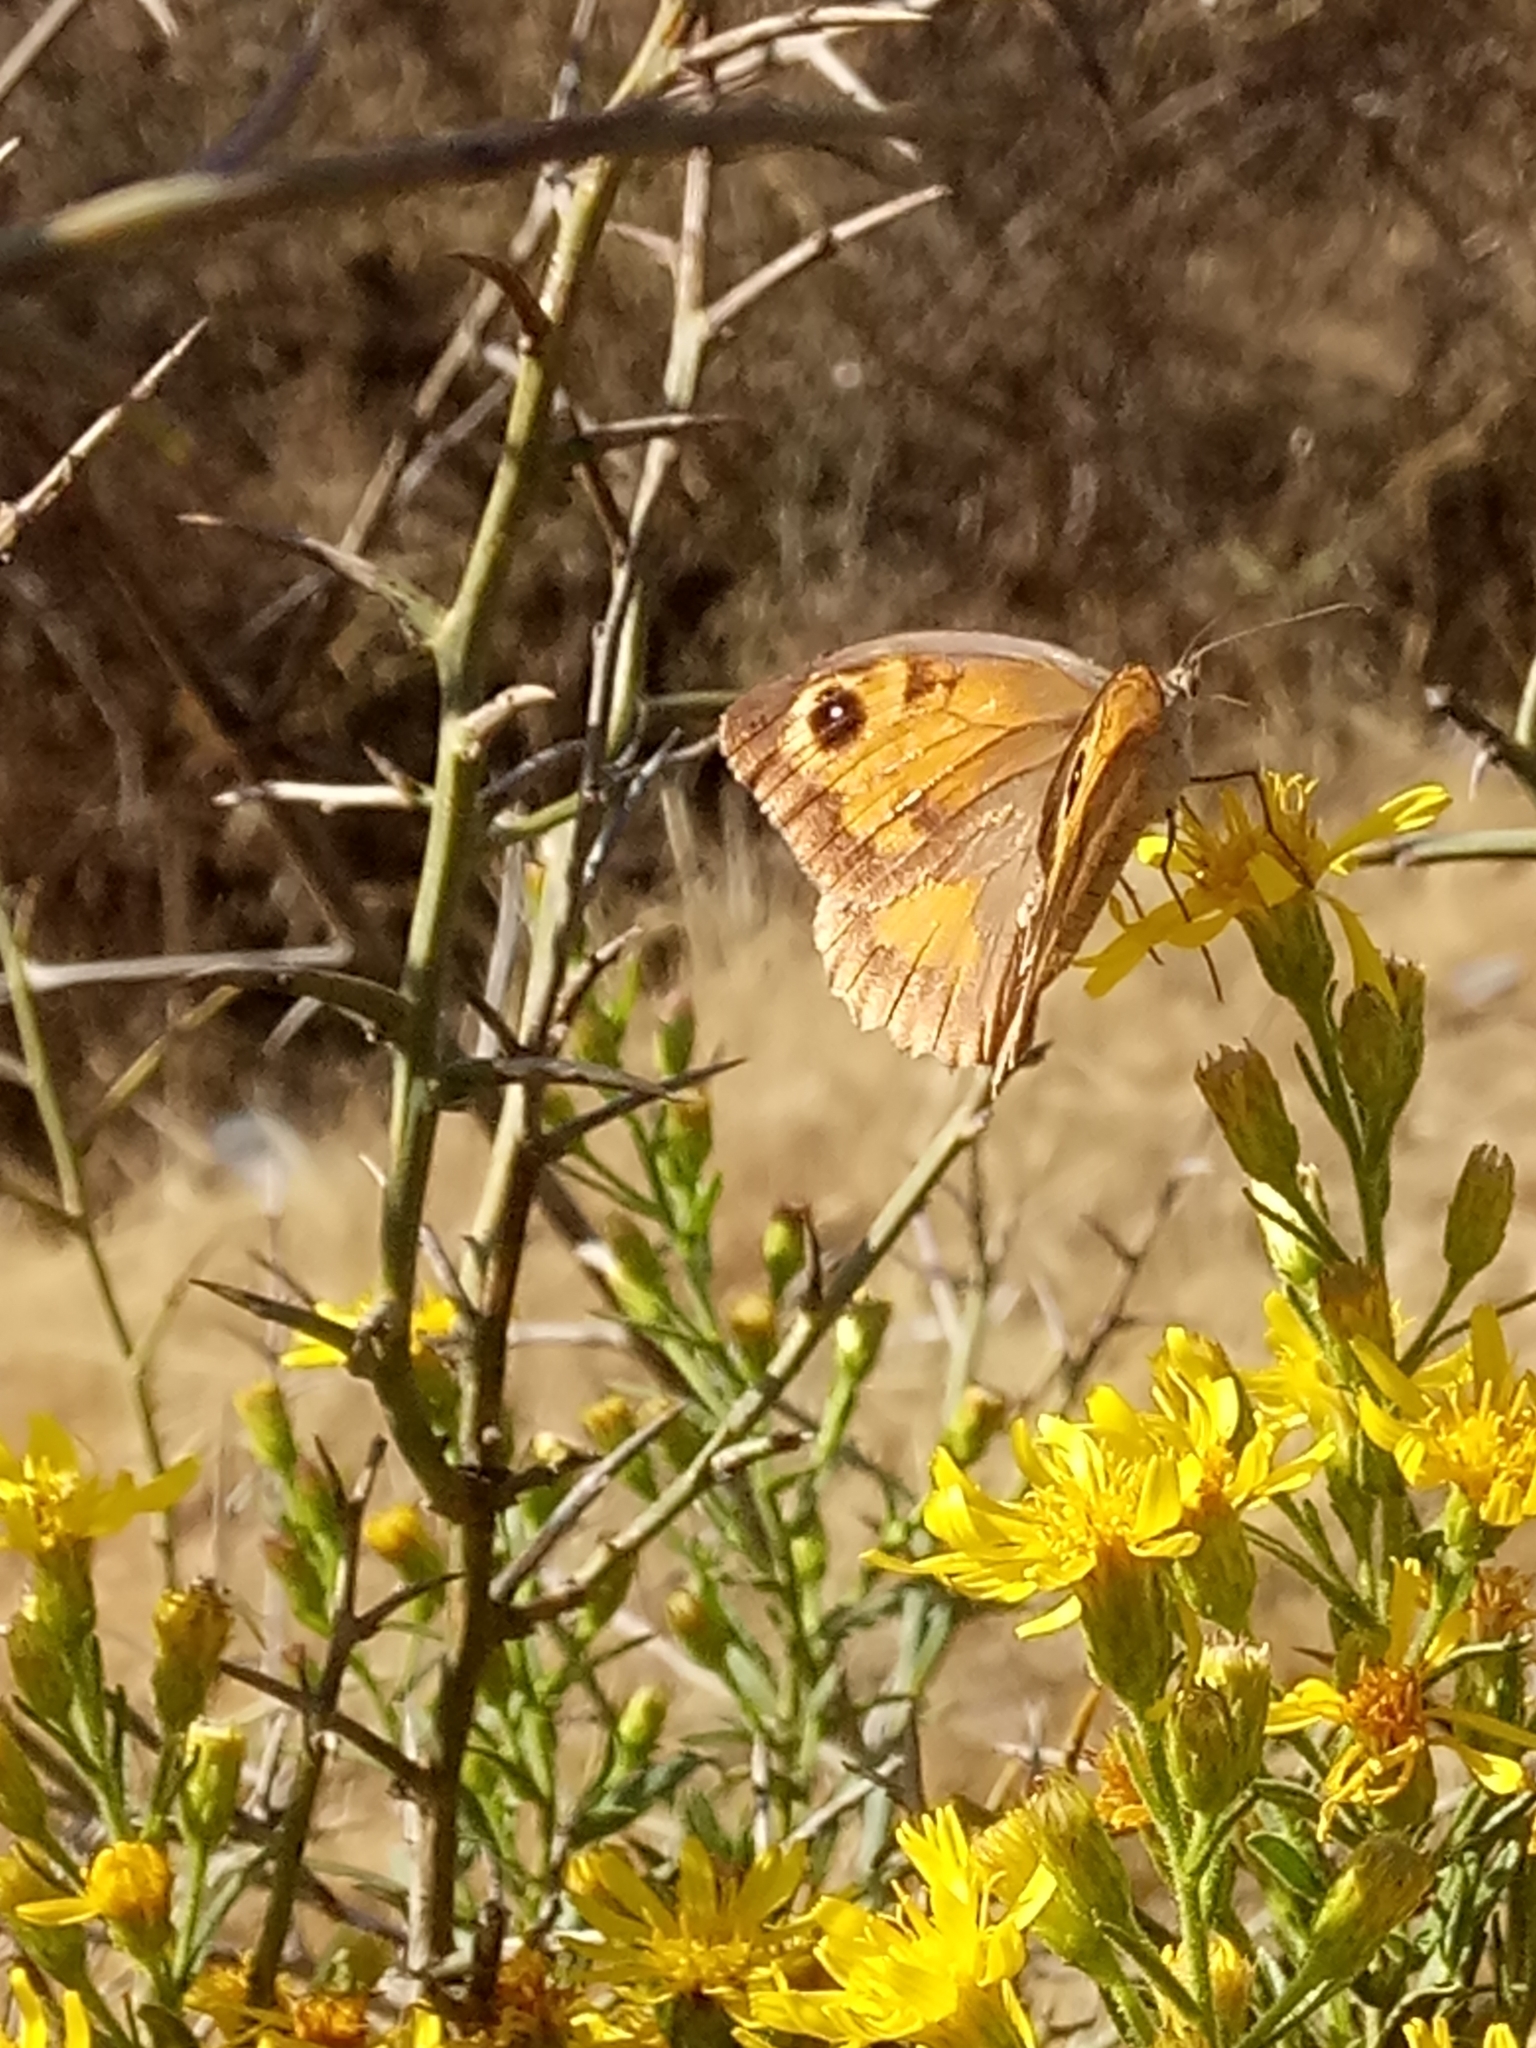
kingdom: Animalia
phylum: Arthropoda
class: Insecta
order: Lepidoptera
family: Nymphalidae
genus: Maniola
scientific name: Maniola jurtina
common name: Meadow brown
